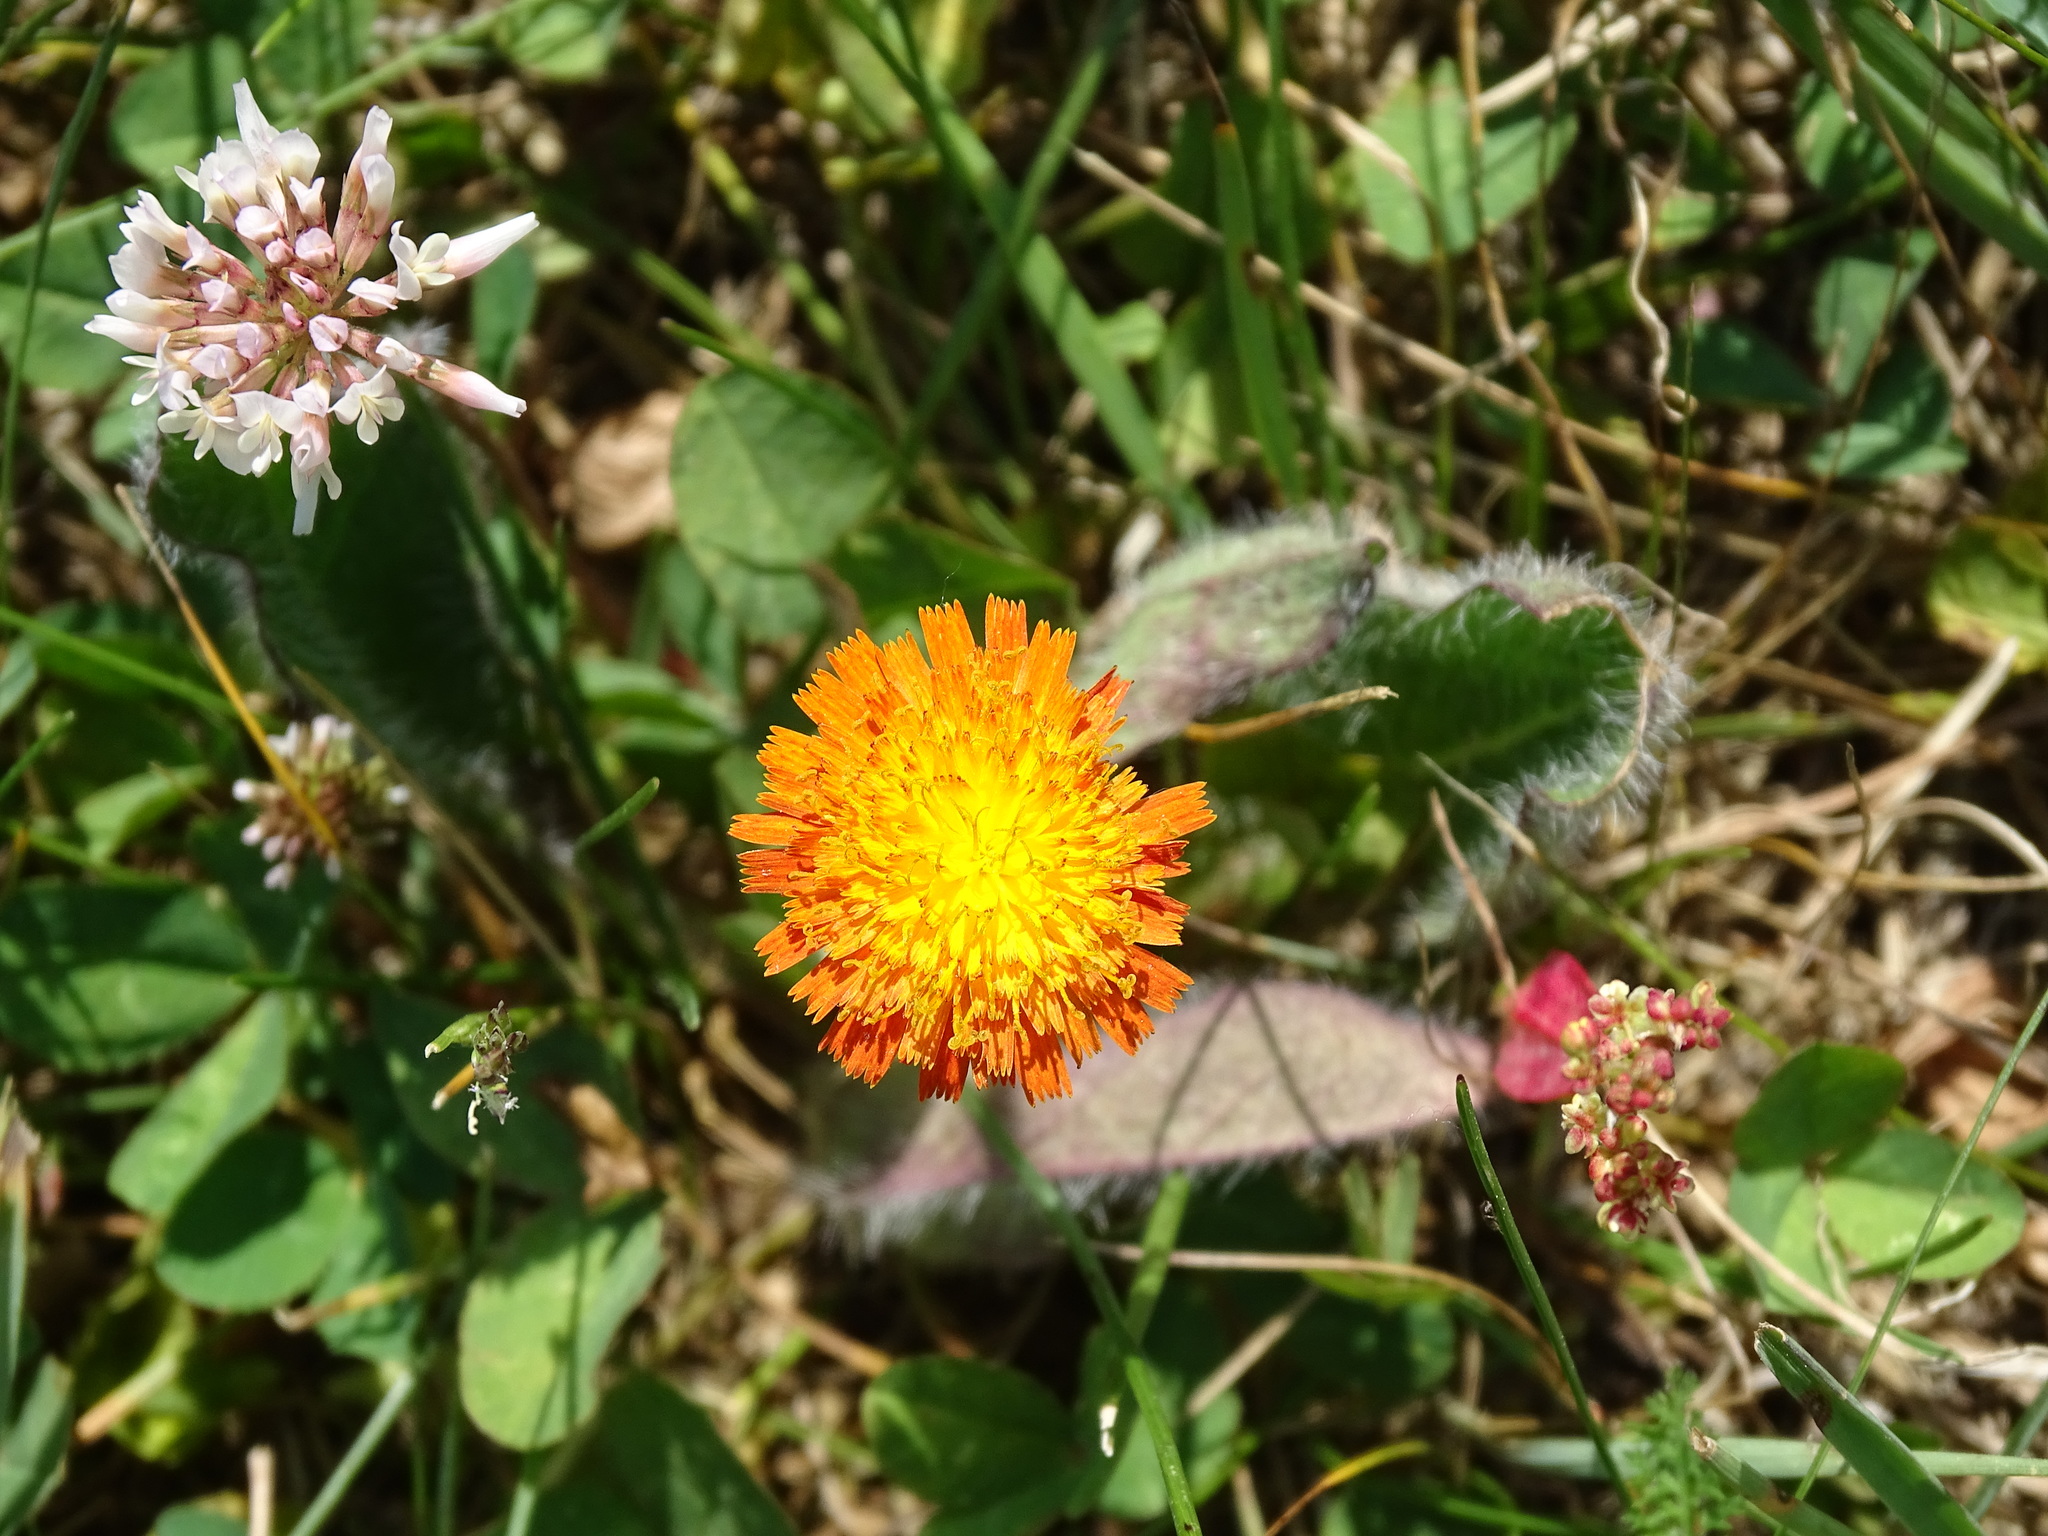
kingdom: Plantae
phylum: Tracheophyta
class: Magnoliopsida
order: Asterales
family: Asteraceae
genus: Pilosella
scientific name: Pilosella aurantiaca
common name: Fox-and-cubs
